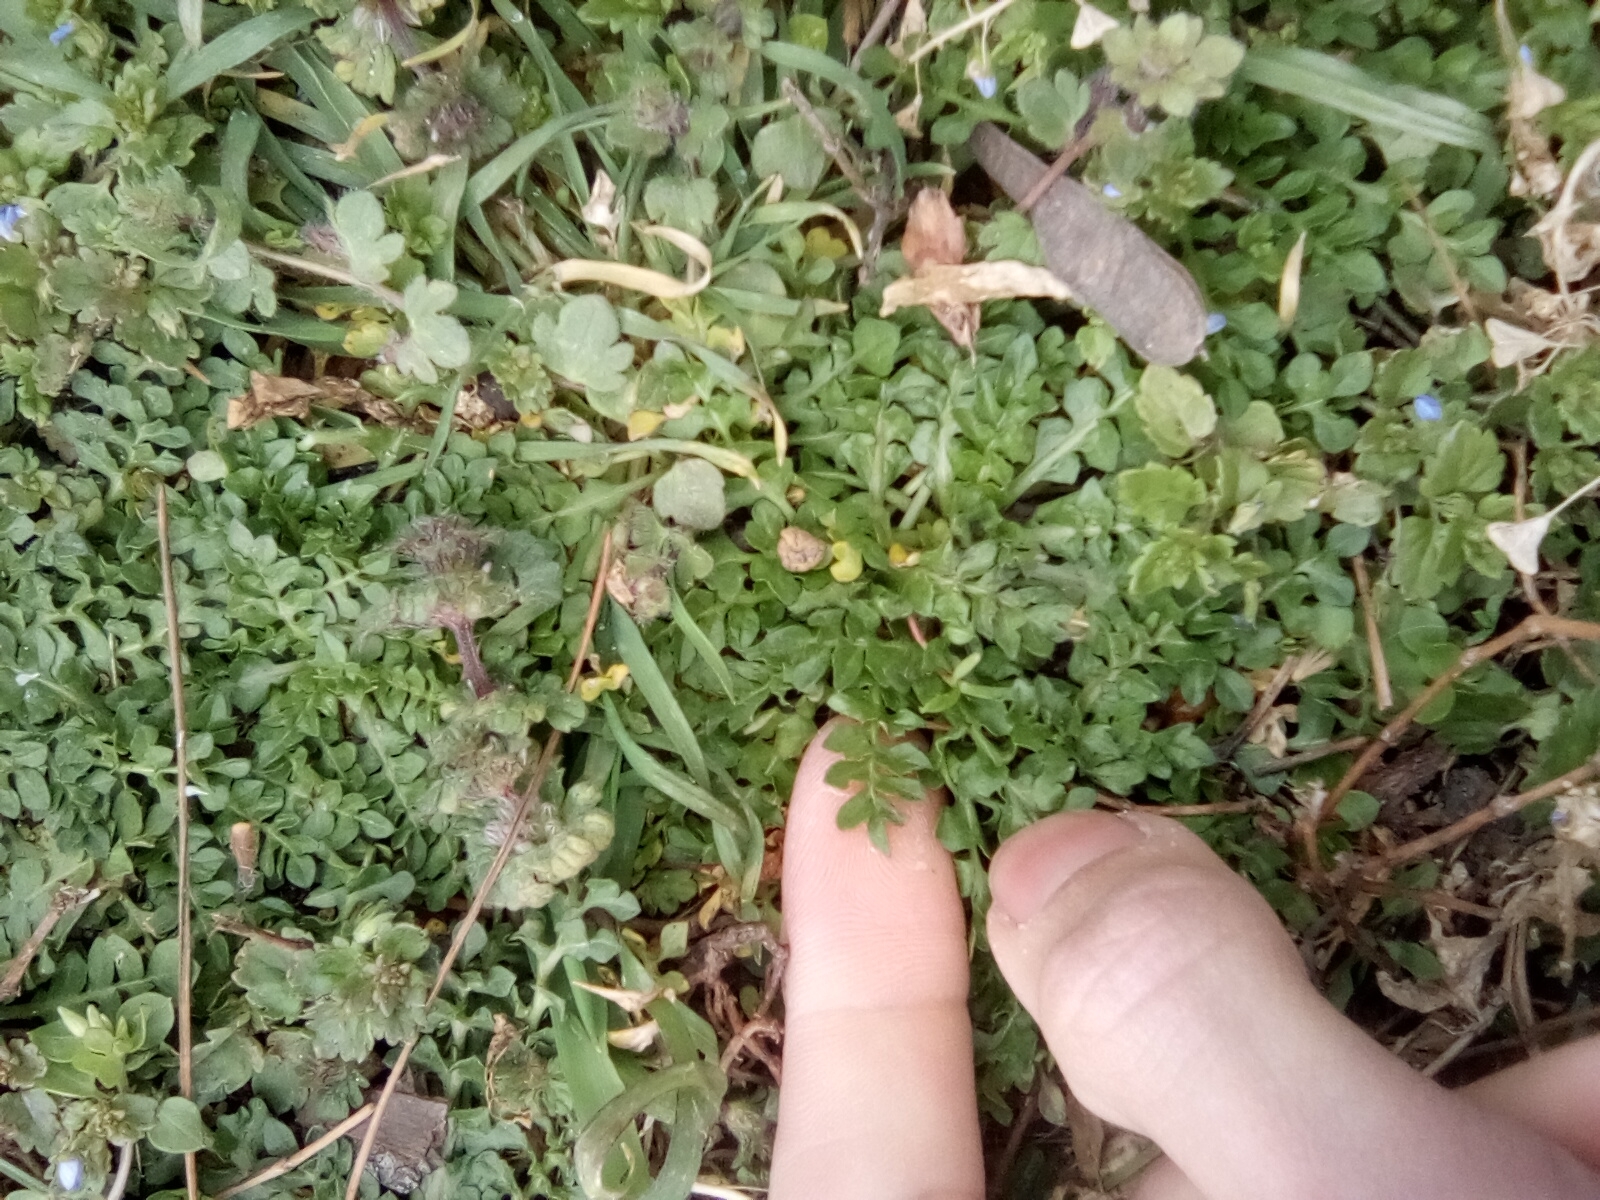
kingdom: Plantae
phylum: Tracheophyta
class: Magnoliopsida
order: Brassicales
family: Brassicaceae
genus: Capsella
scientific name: Capsella bursa-pastoris
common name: Shepherd's purse
